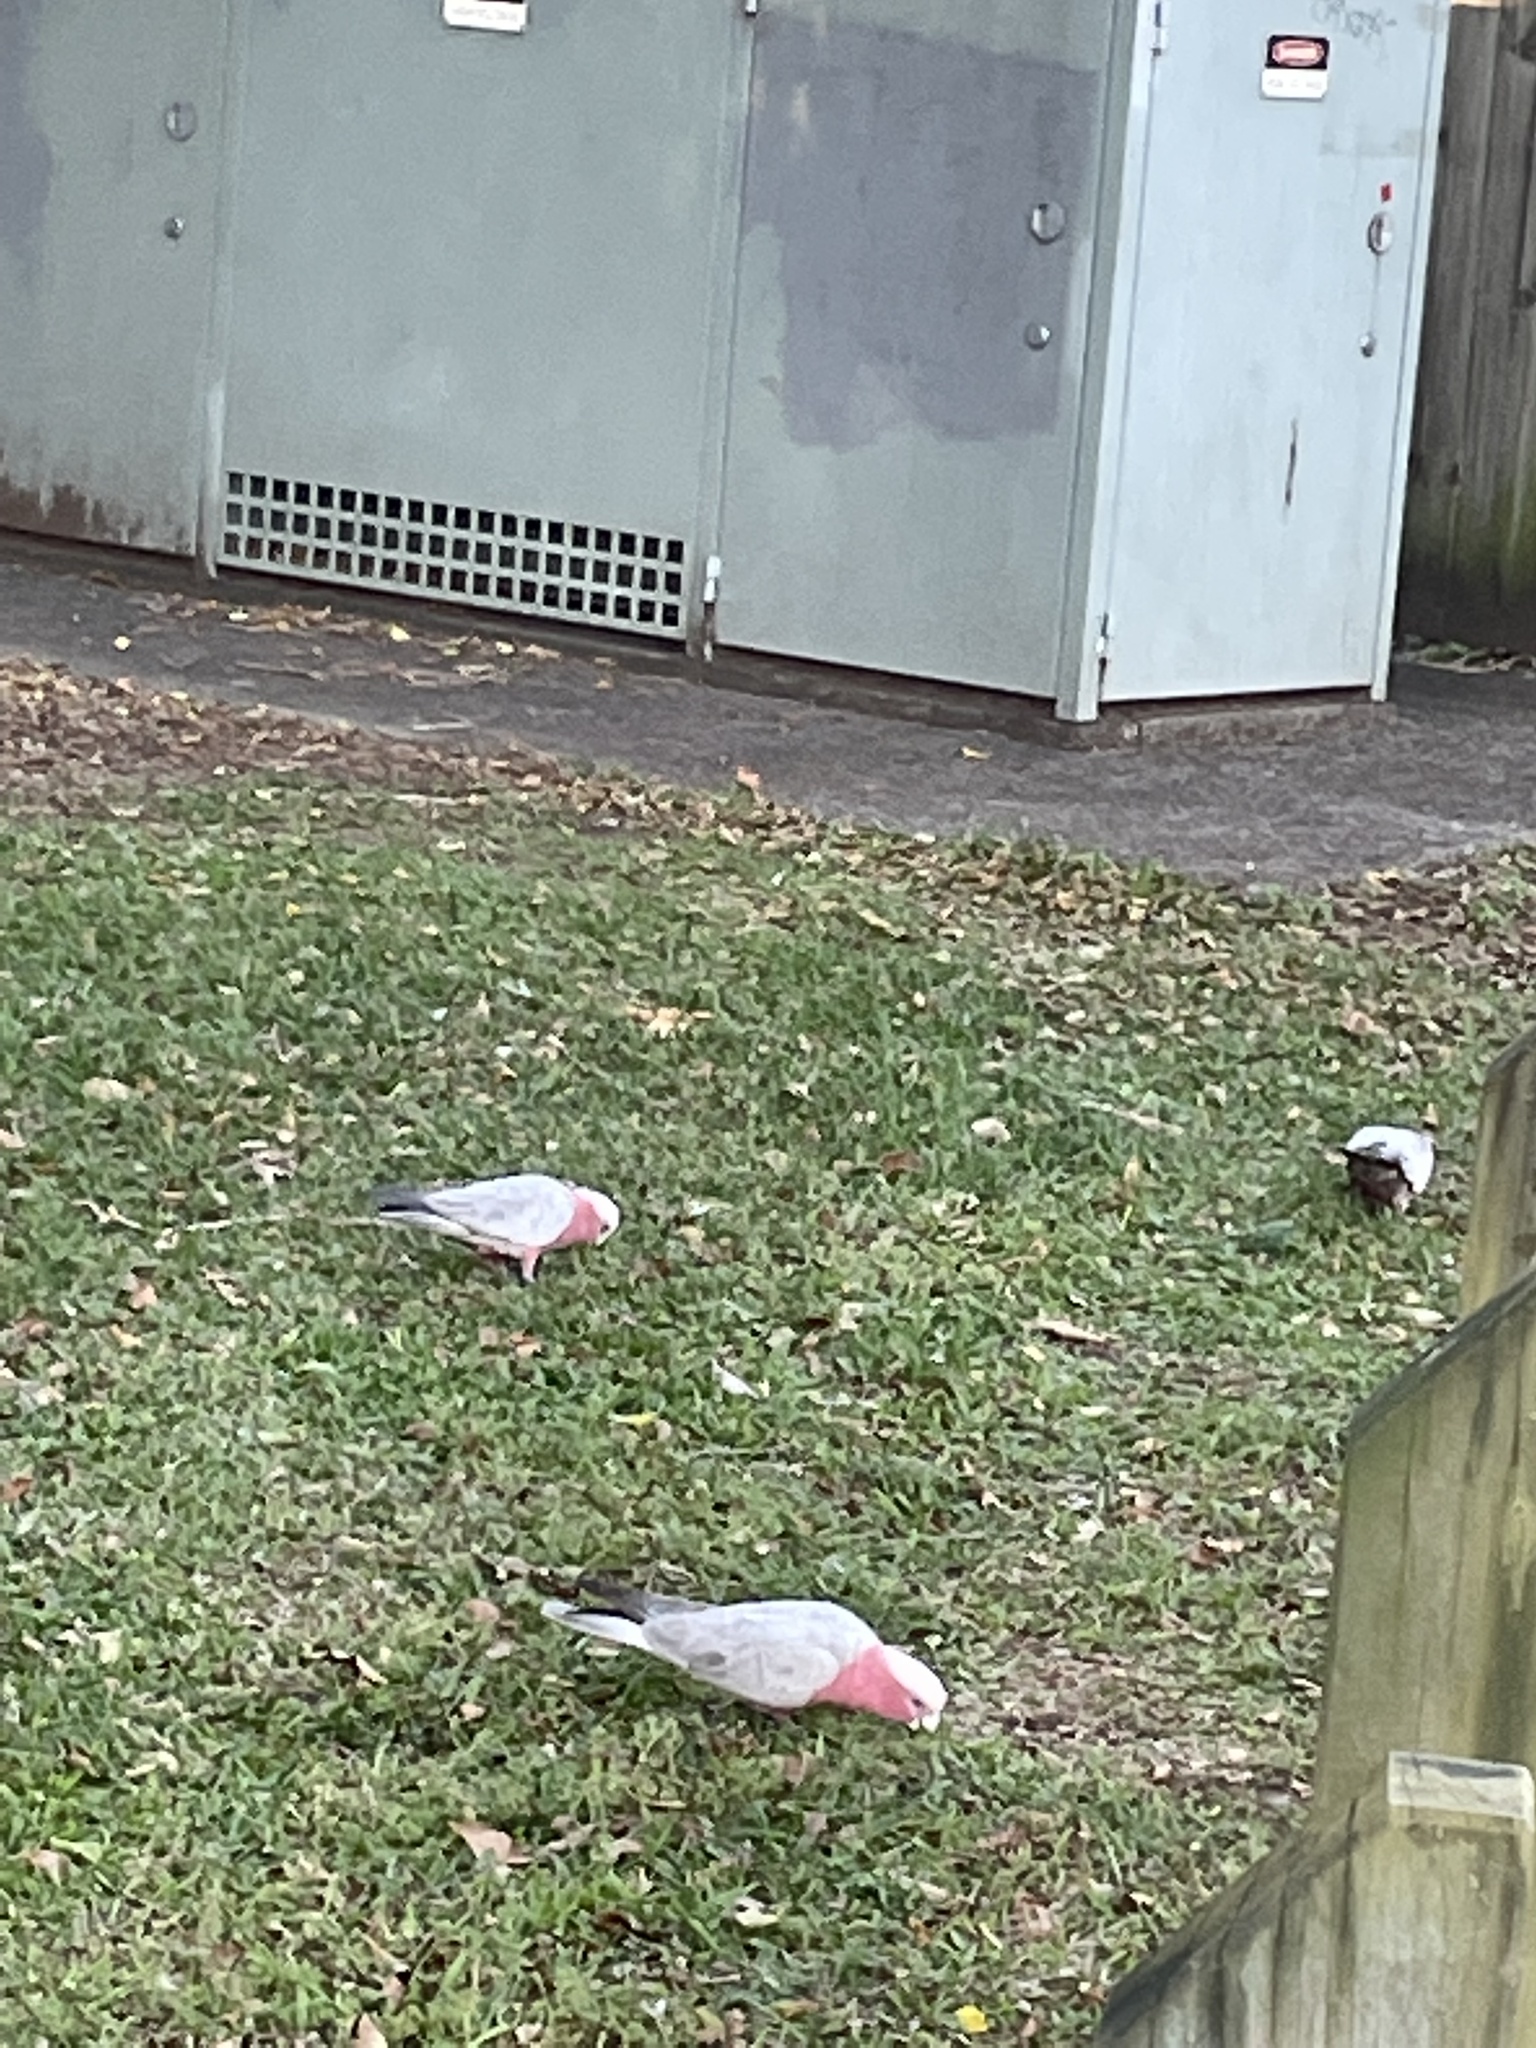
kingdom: Animalia
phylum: Chordata
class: Aves
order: Psittaciformes
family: Psittacidae
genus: Eolophus
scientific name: Eolophus roseicapilla
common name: Galah
